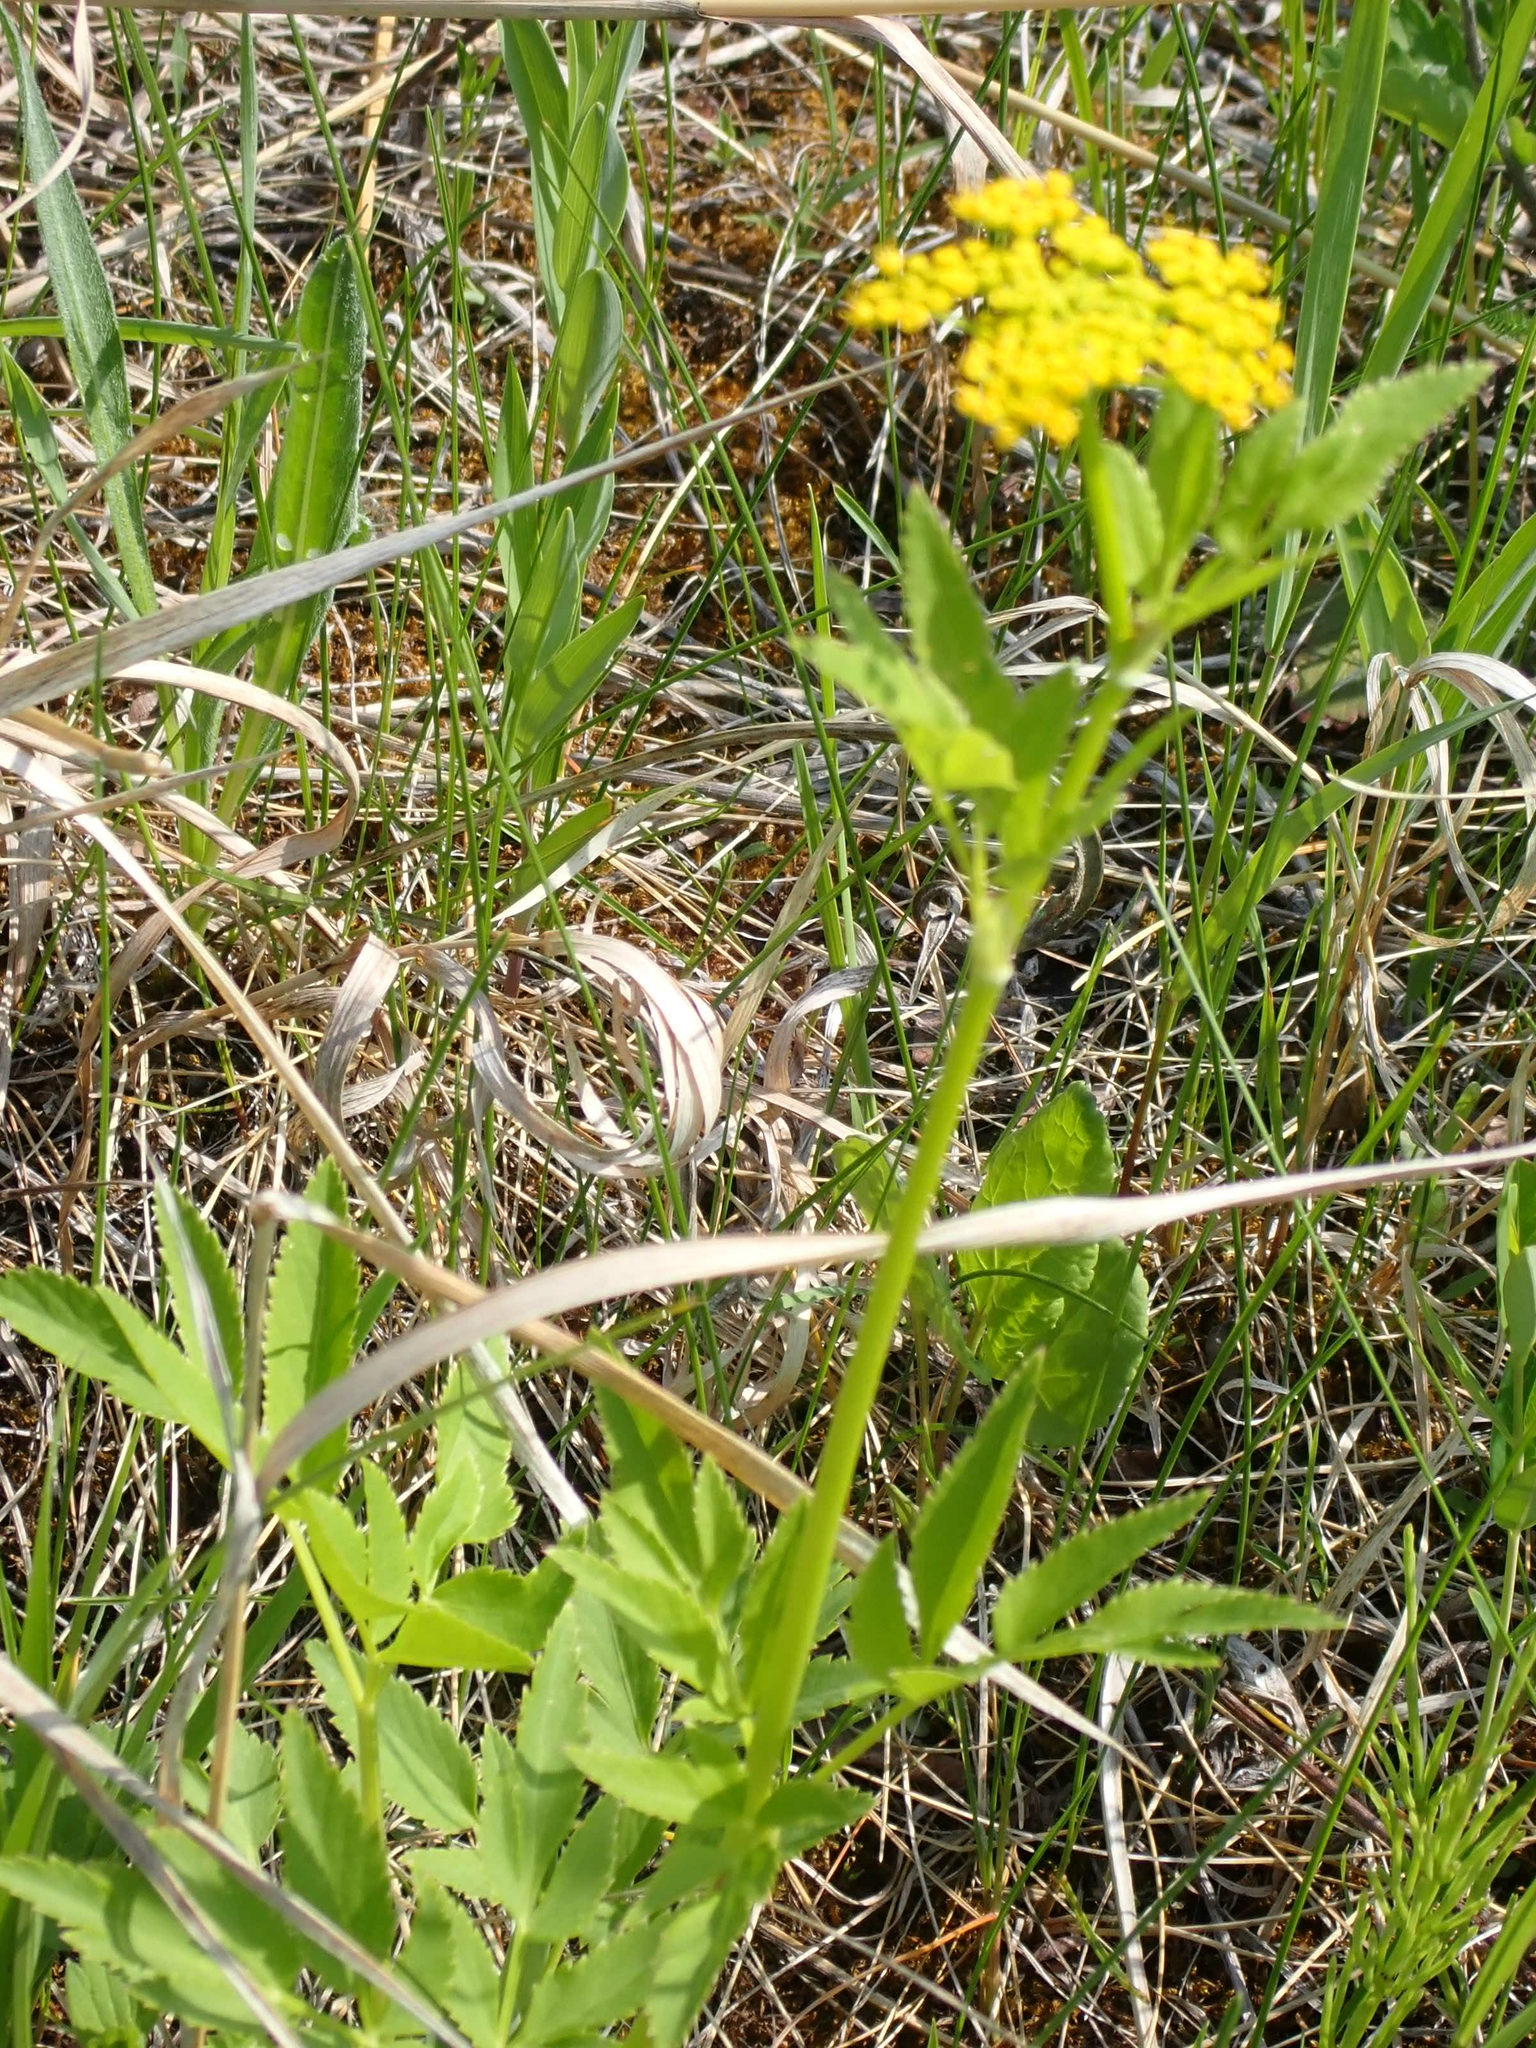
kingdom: Plantae
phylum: Tracheophyta
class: Magnoliopsida
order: Apiales
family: Apiaceae
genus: Zizia
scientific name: Zizia aurea
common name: Golden alexanders
